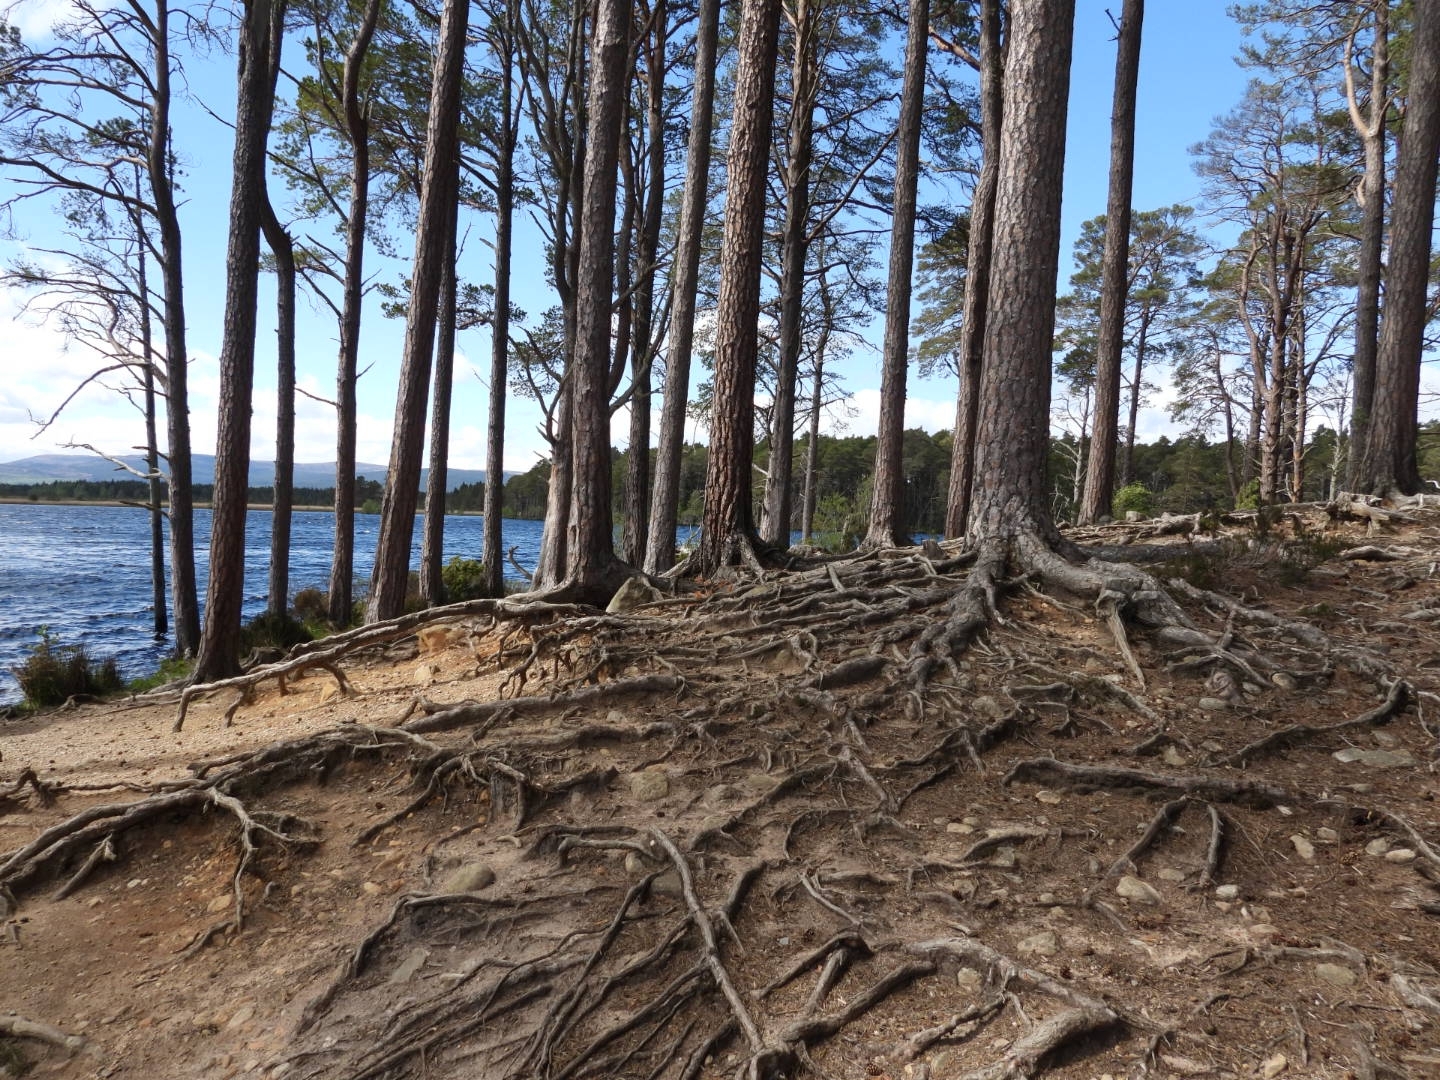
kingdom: Plantae
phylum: Tracheophyta
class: Pinopsida
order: Pinales
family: Pinaceae
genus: Pinus
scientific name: Pinus sylvestris
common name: Scots pine
